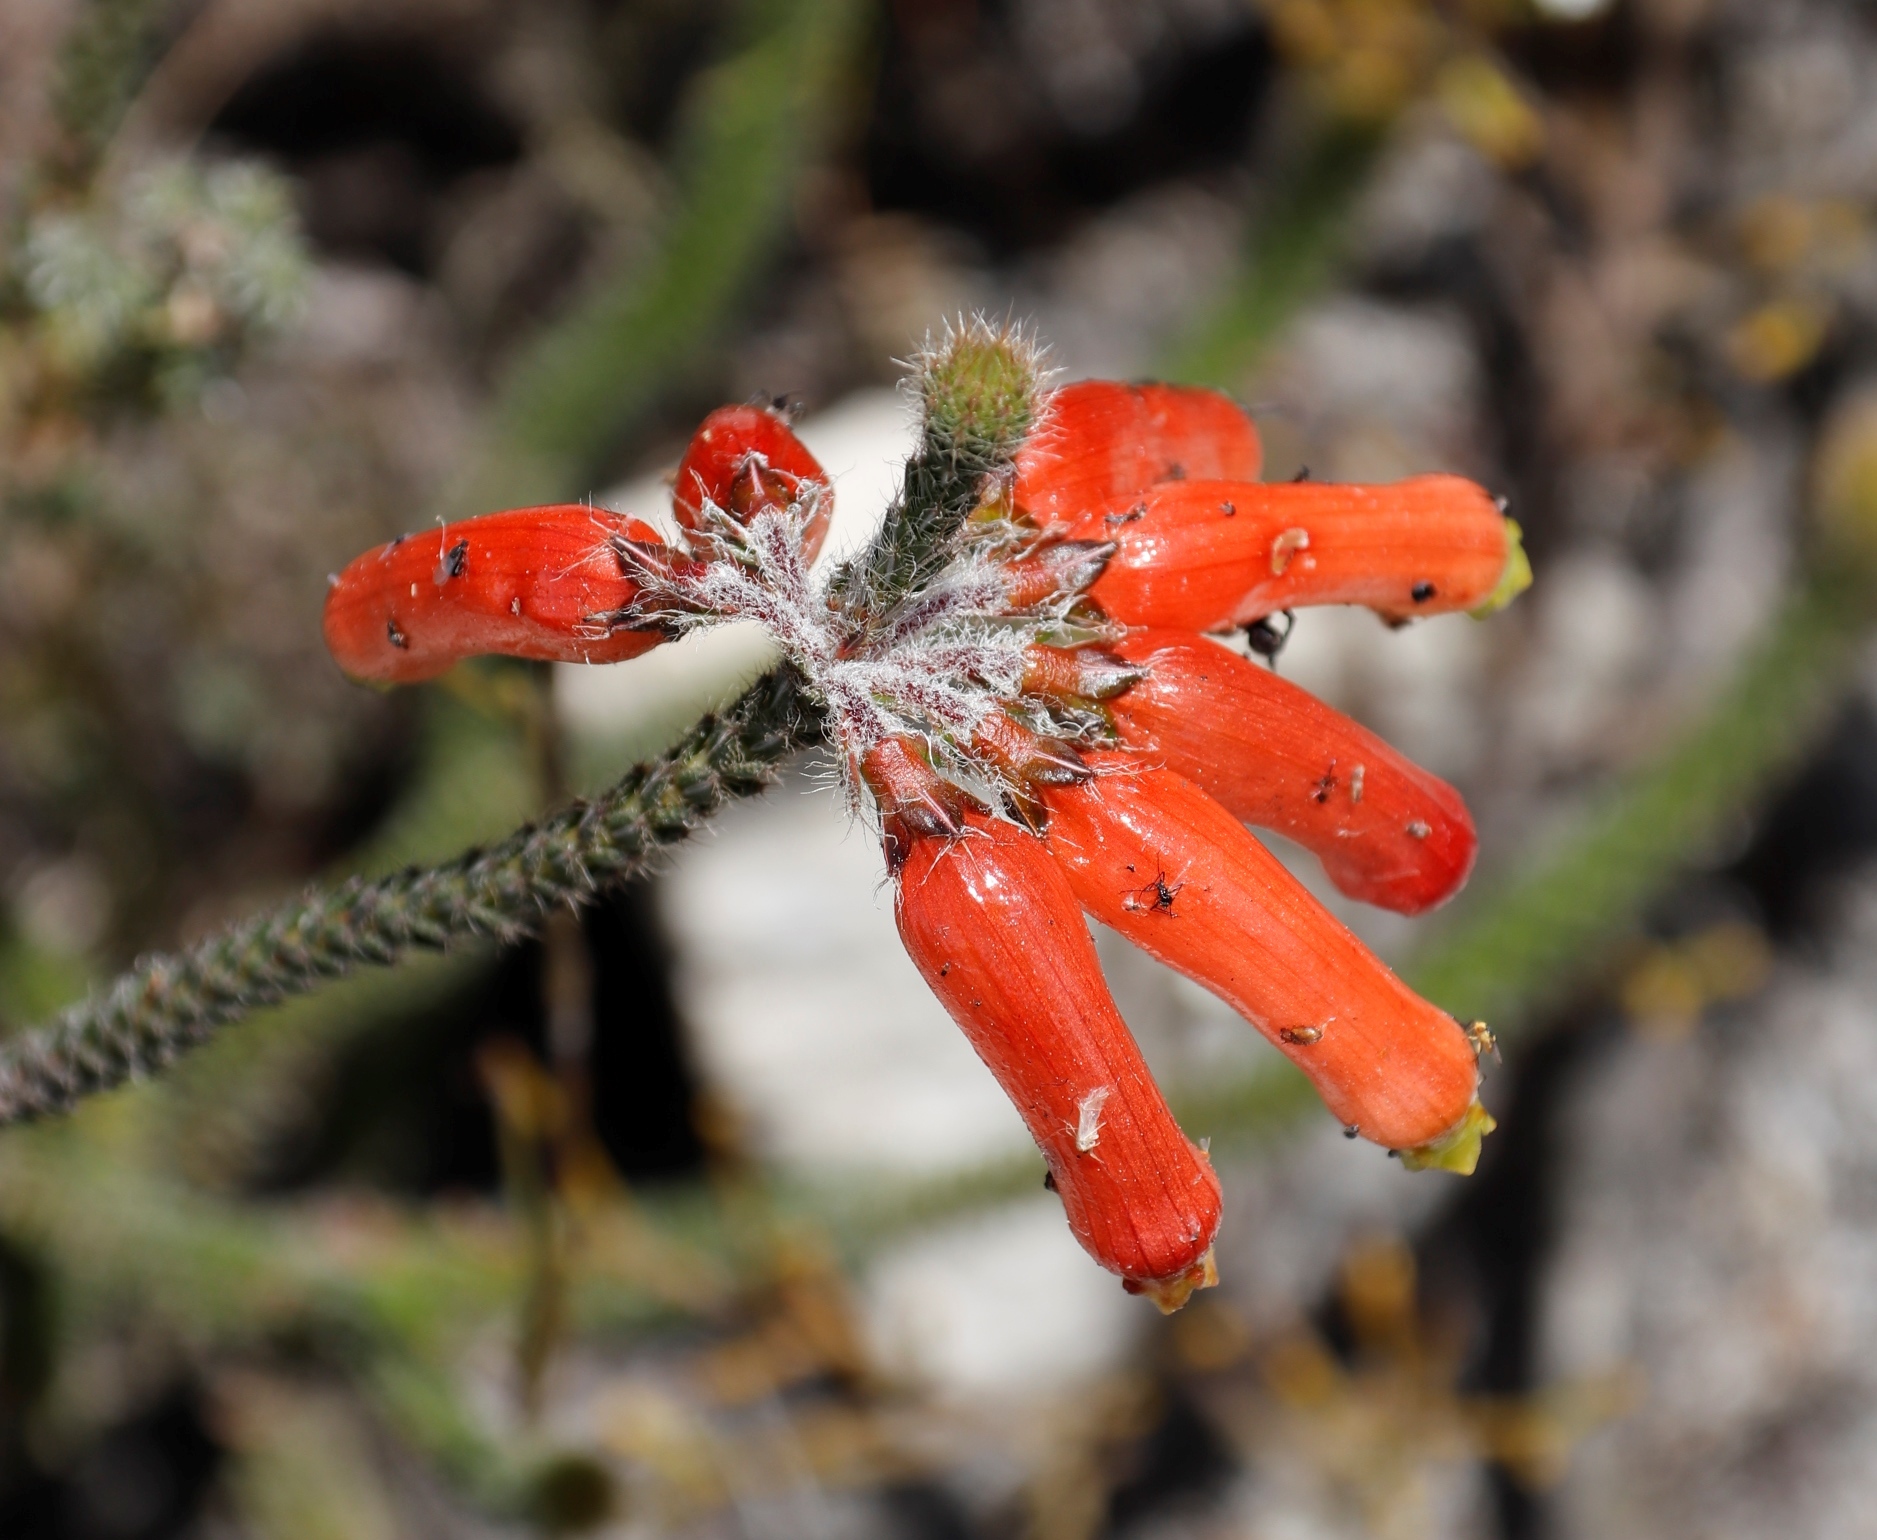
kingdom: Plantae
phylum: Tracheophyta
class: Magnoliopsida
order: Ericales
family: Ericaceae
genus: Erica
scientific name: Erica massonii
